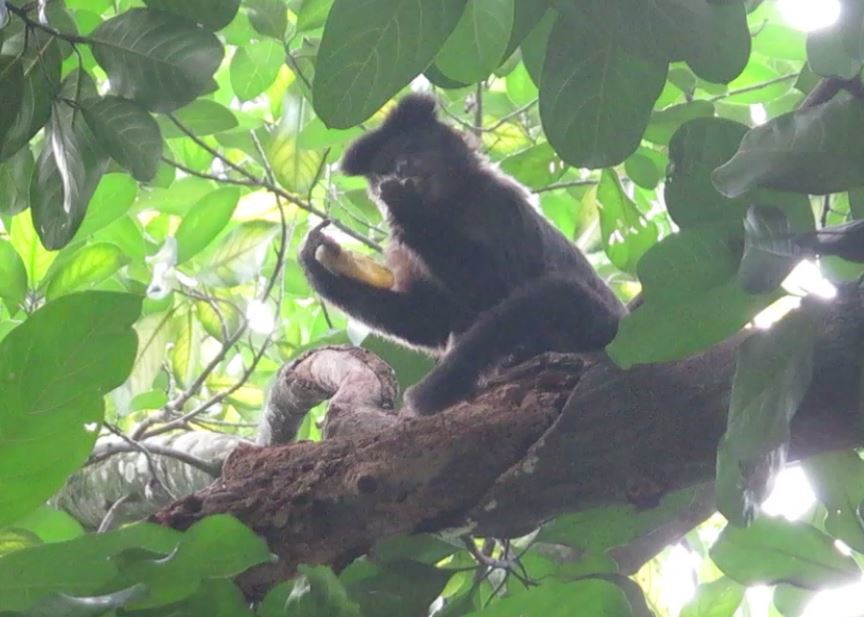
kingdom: Animalia
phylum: Chordata
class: Mammalia
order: Primates
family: Cebidae
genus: Sapajus
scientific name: Sapajus nigritus
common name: Black capuchin
